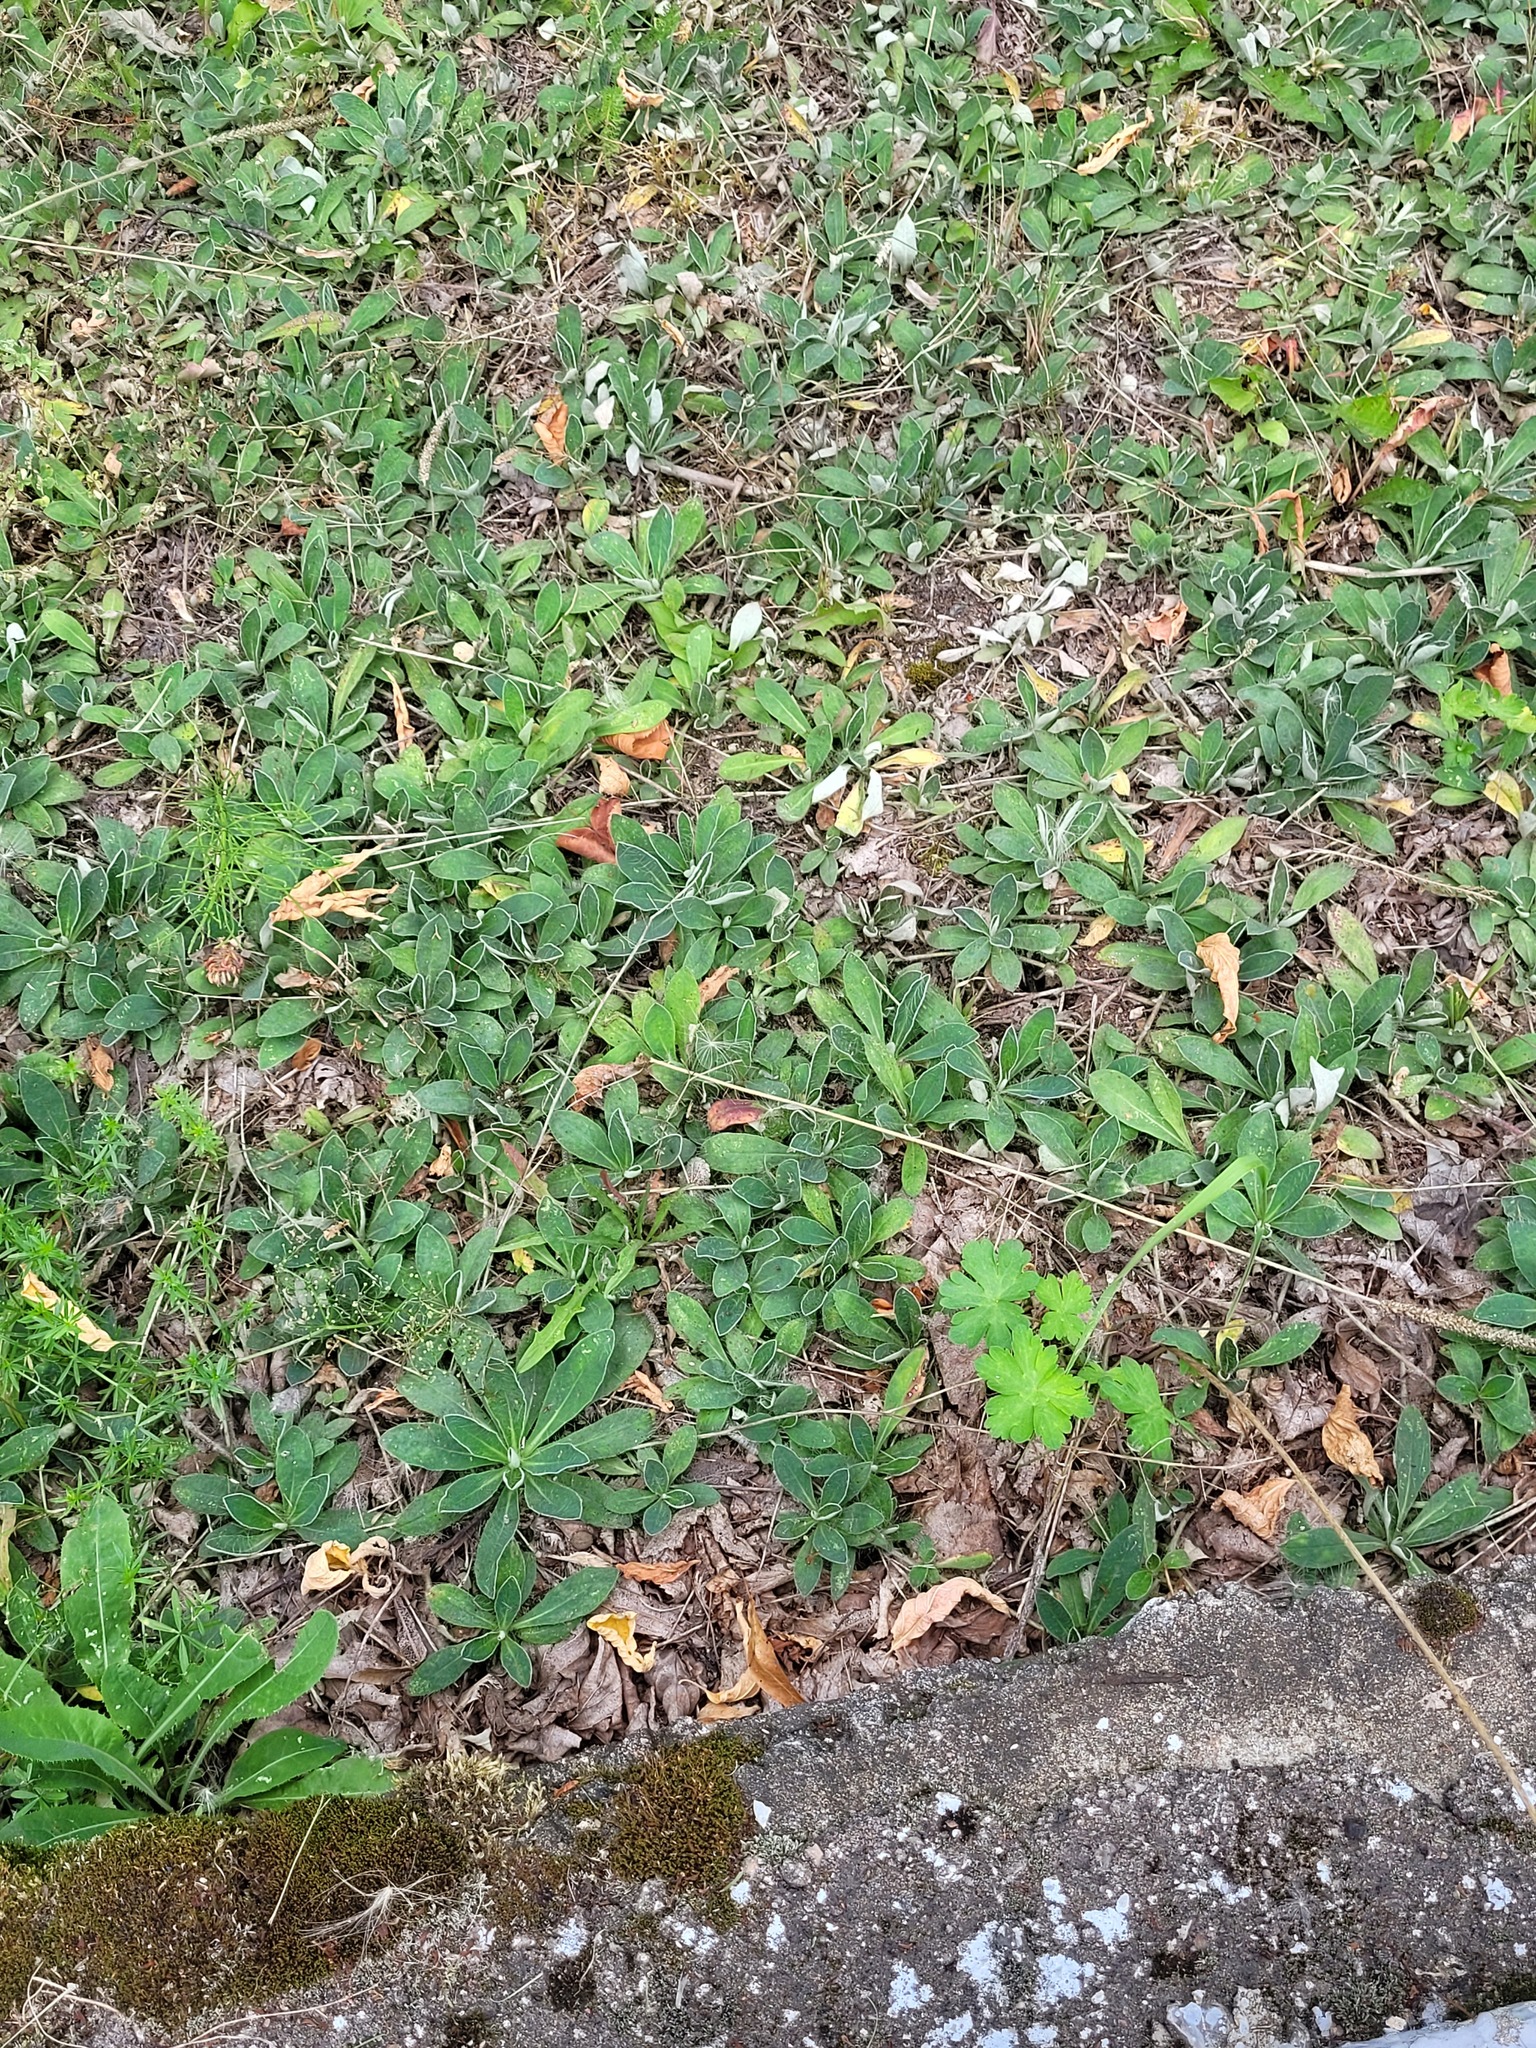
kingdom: Plantae
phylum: Tracheophyta
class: Magnoliopsida
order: Asterales
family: Asteraceae
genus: Pilosella
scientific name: Pilosella officinarum
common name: Mouse-ear hawkweed
